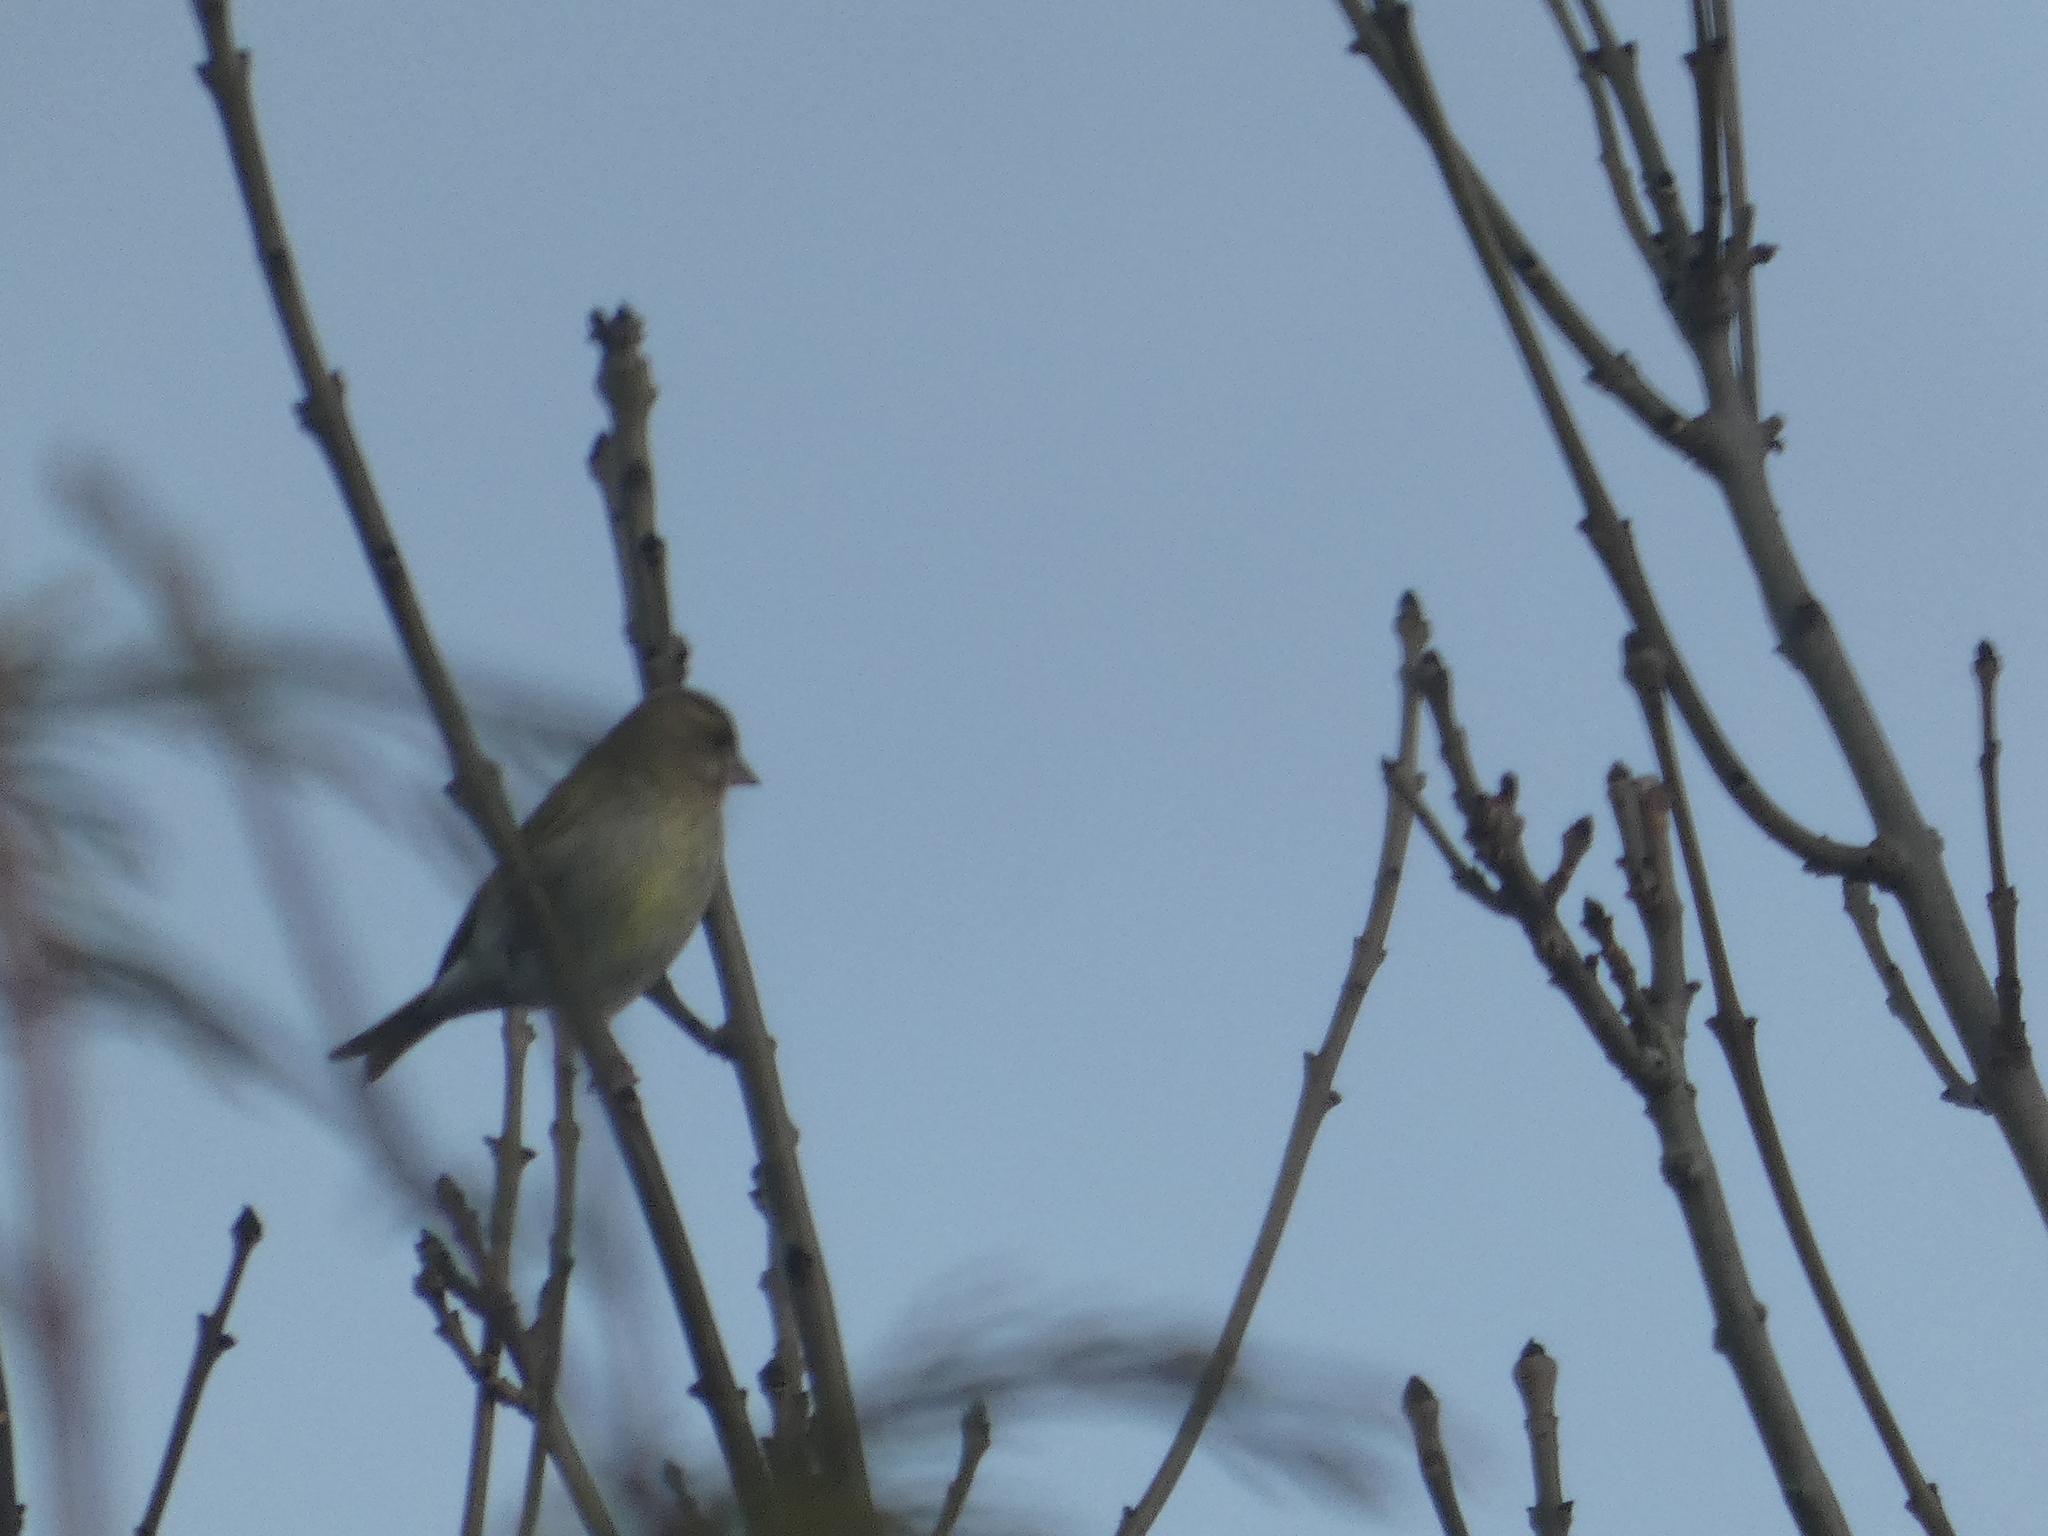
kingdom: Plantae
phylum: Tracheophyta
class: Liliopsida
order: Poales
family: Poaceae
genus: Chloris
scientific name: Chloris chloris
